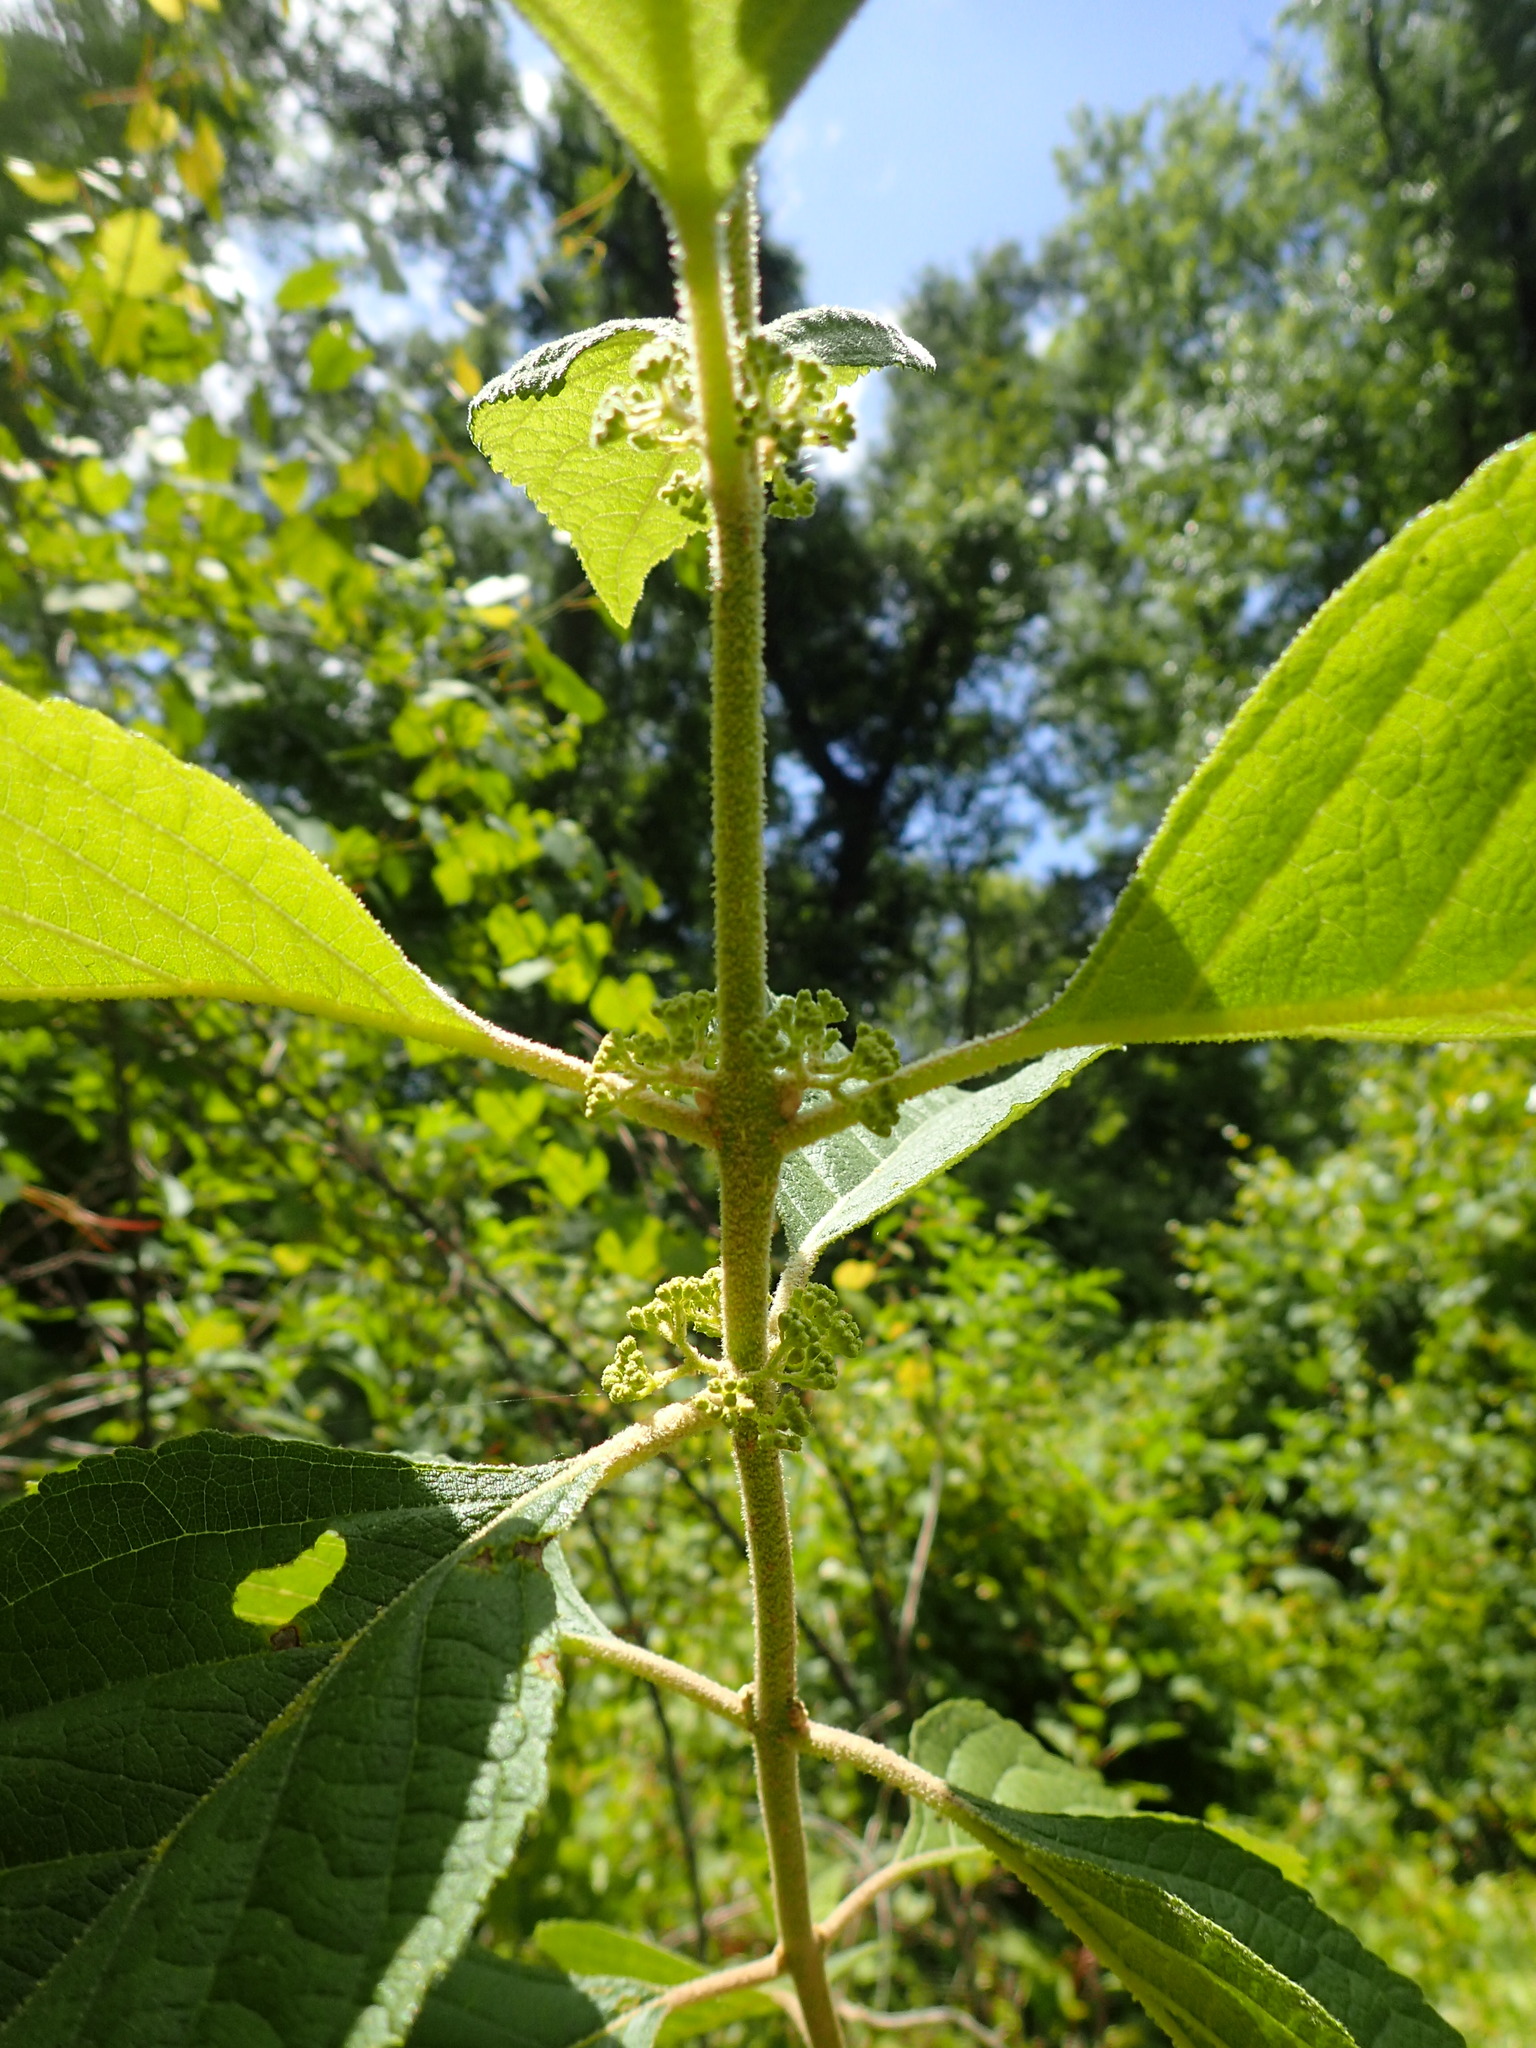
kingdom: Plantae
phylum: Tracheophyta
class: Magnoliopsida
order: Lamiales
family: Lamiaceae
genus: Callicarpa
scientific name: Callicarpa americana
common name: American beautyberry
